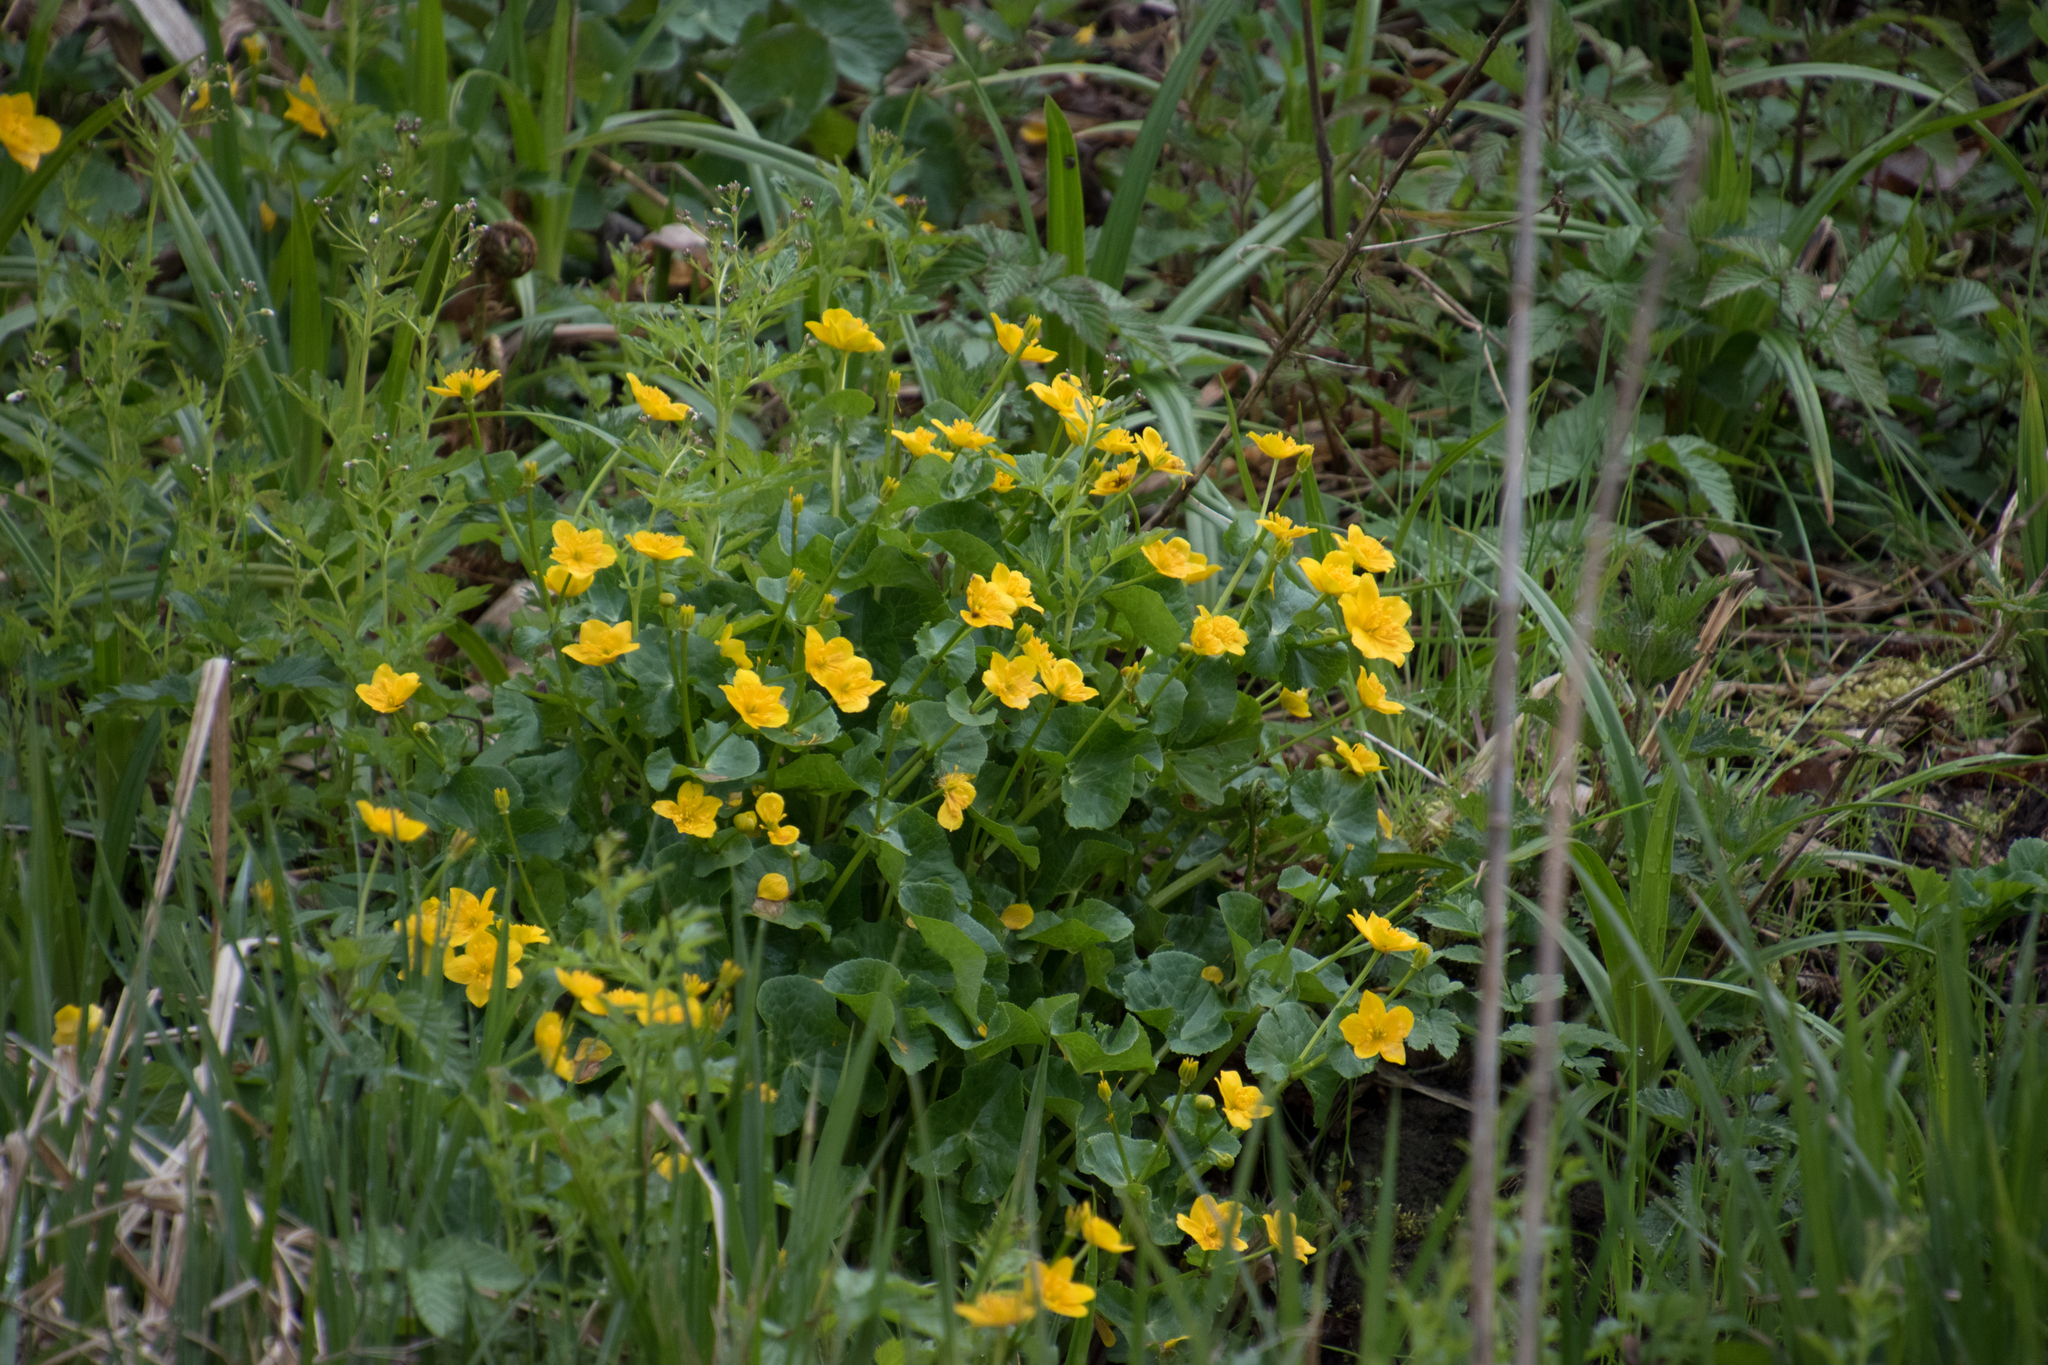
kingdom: Plantae
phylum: Tracheophyta
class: Magnoliopsida
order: Ranunculales
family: Ranunculaceae
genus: Caltha
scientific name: Caltha palustris
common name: Marsh marigold
